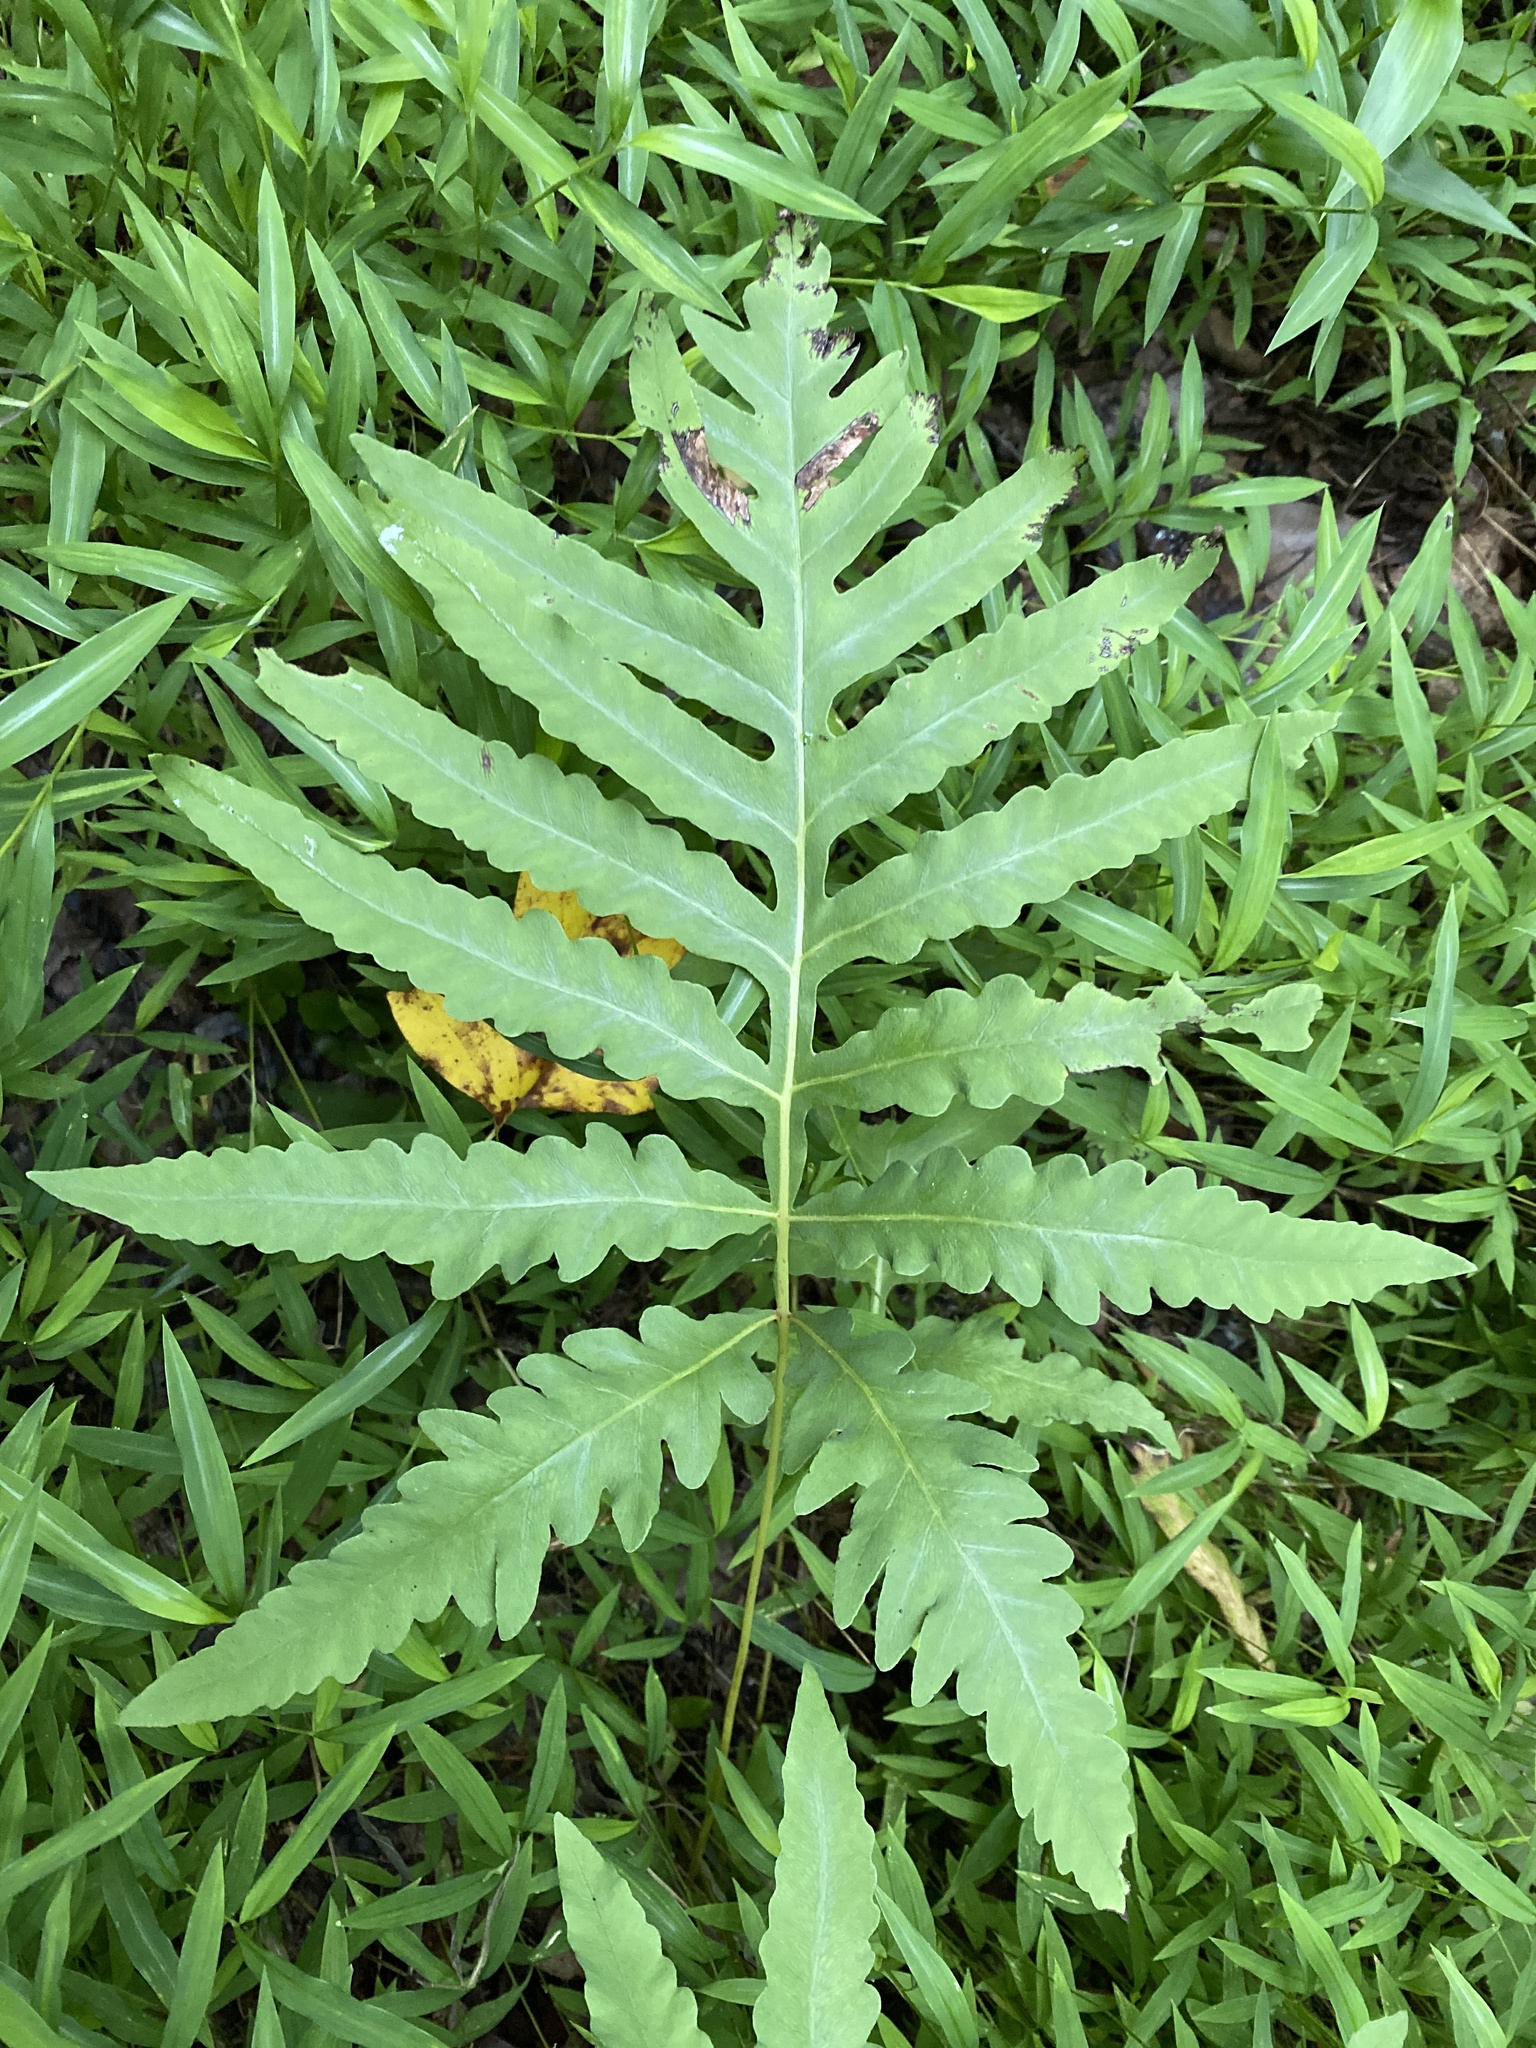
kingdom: Plantae
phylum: Tracheophyta
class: Polypodiopsida
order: Polypodiales
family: Onocleaceae
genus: Onoclea
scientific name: Onoclea sensibilis
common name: Sensitive fern
